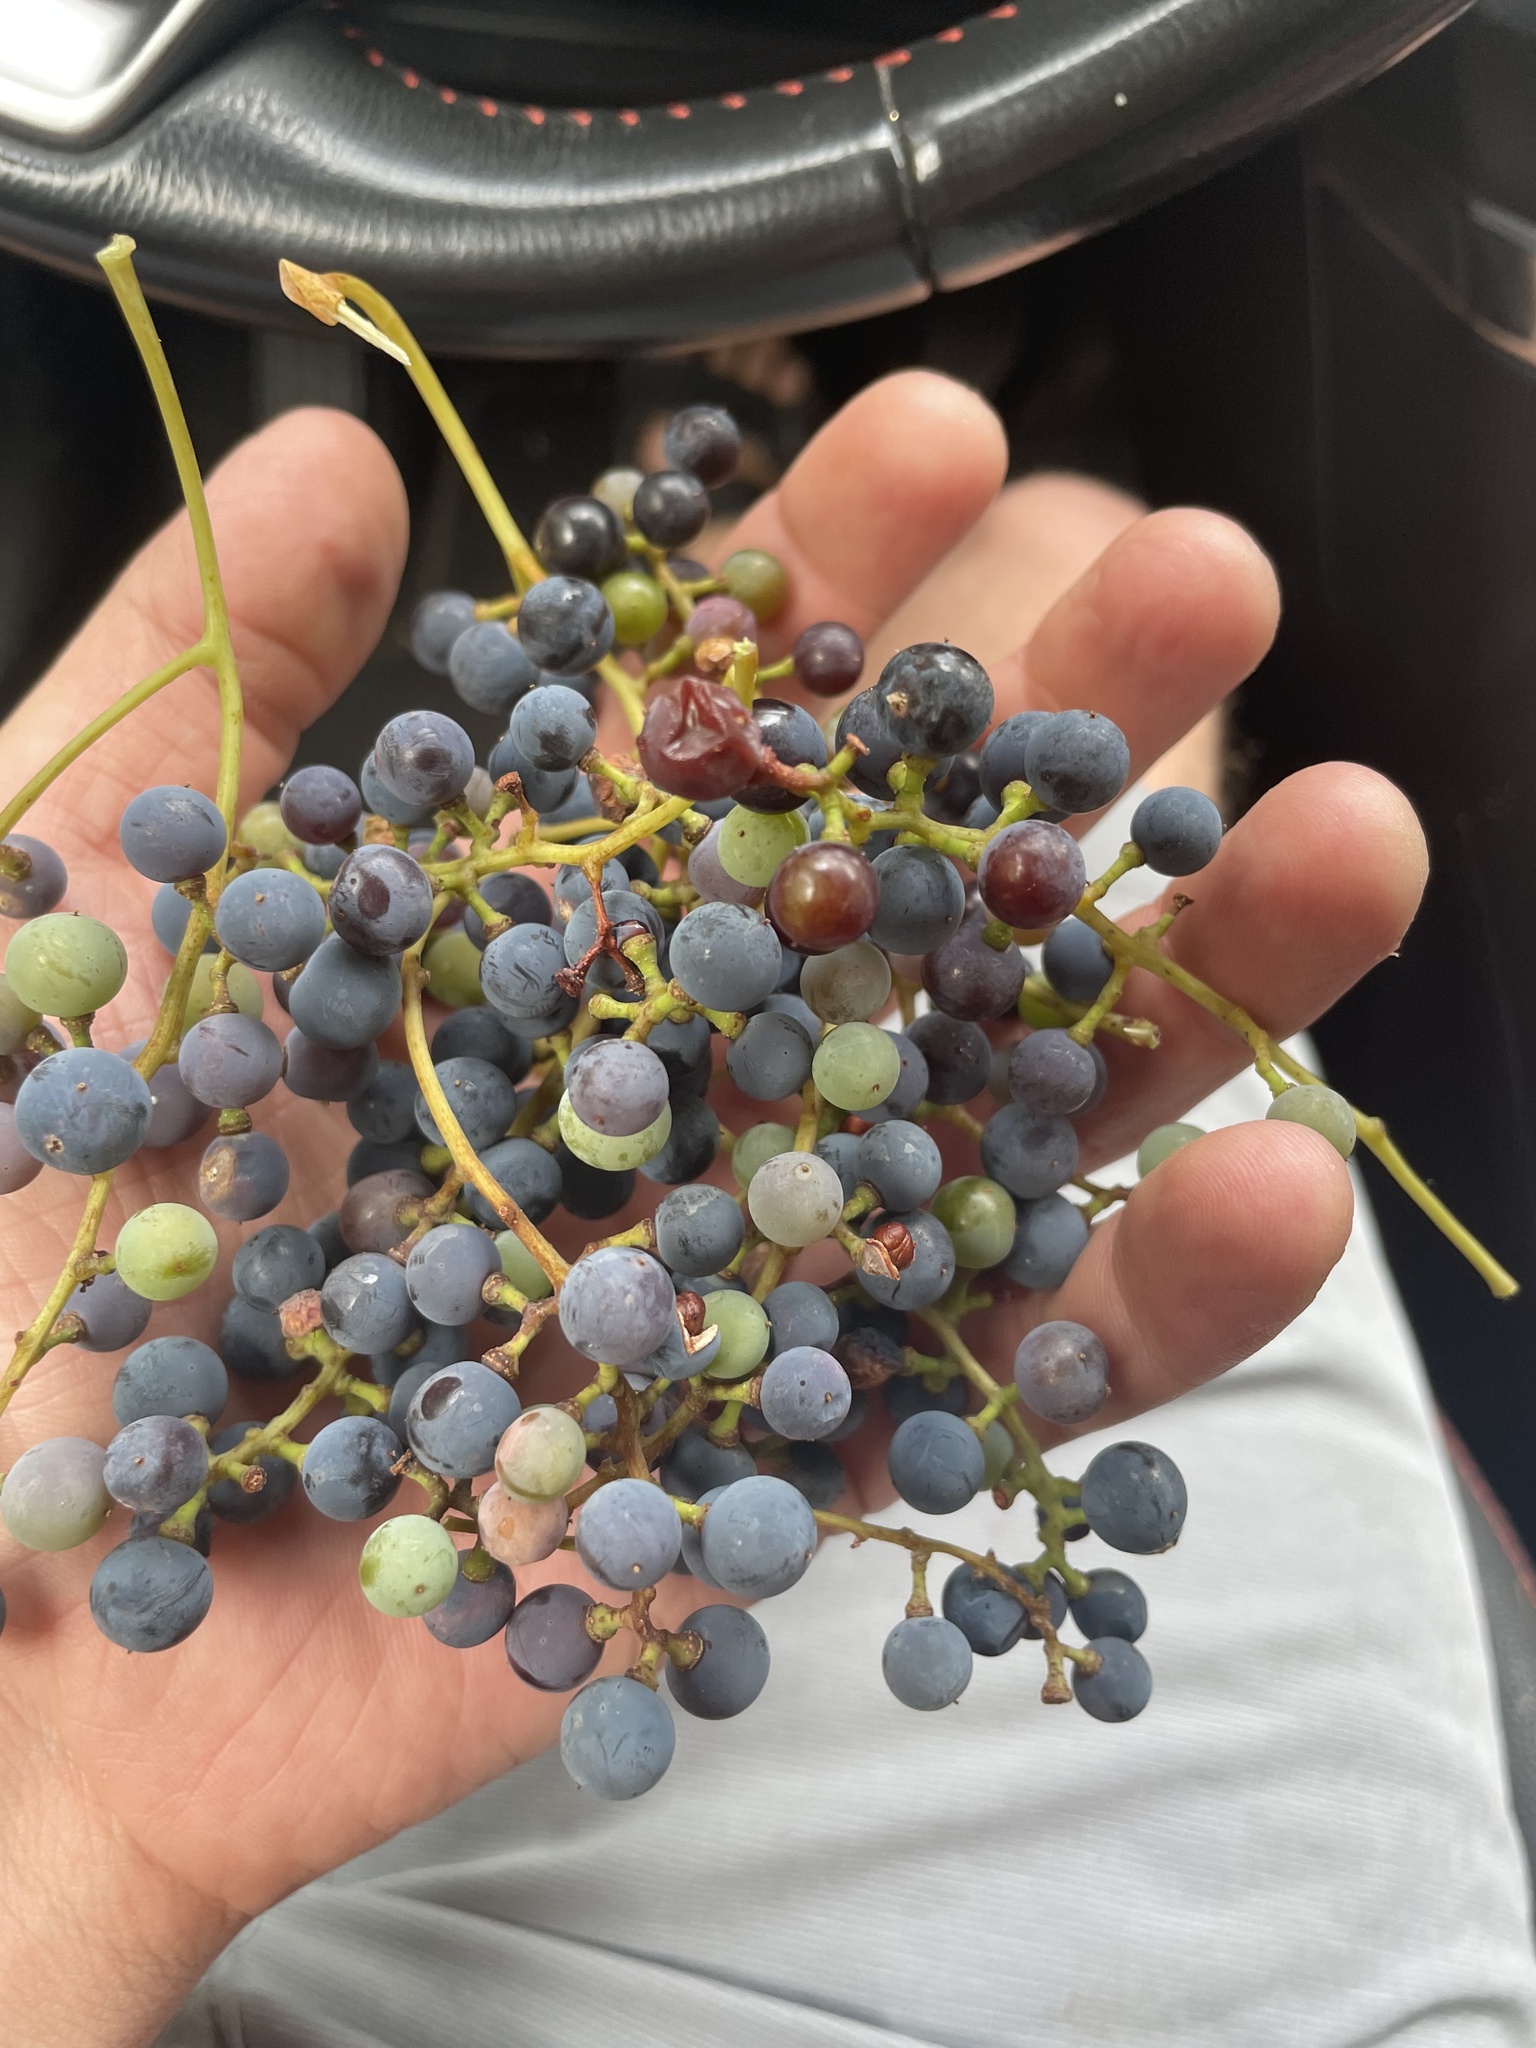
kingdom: Plantae
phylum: Tracheophyta
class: Magnoliopsida
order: Vitales
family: Vitaceae
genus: Vitis
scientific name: Vitis arizonica
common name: Canyon grape
